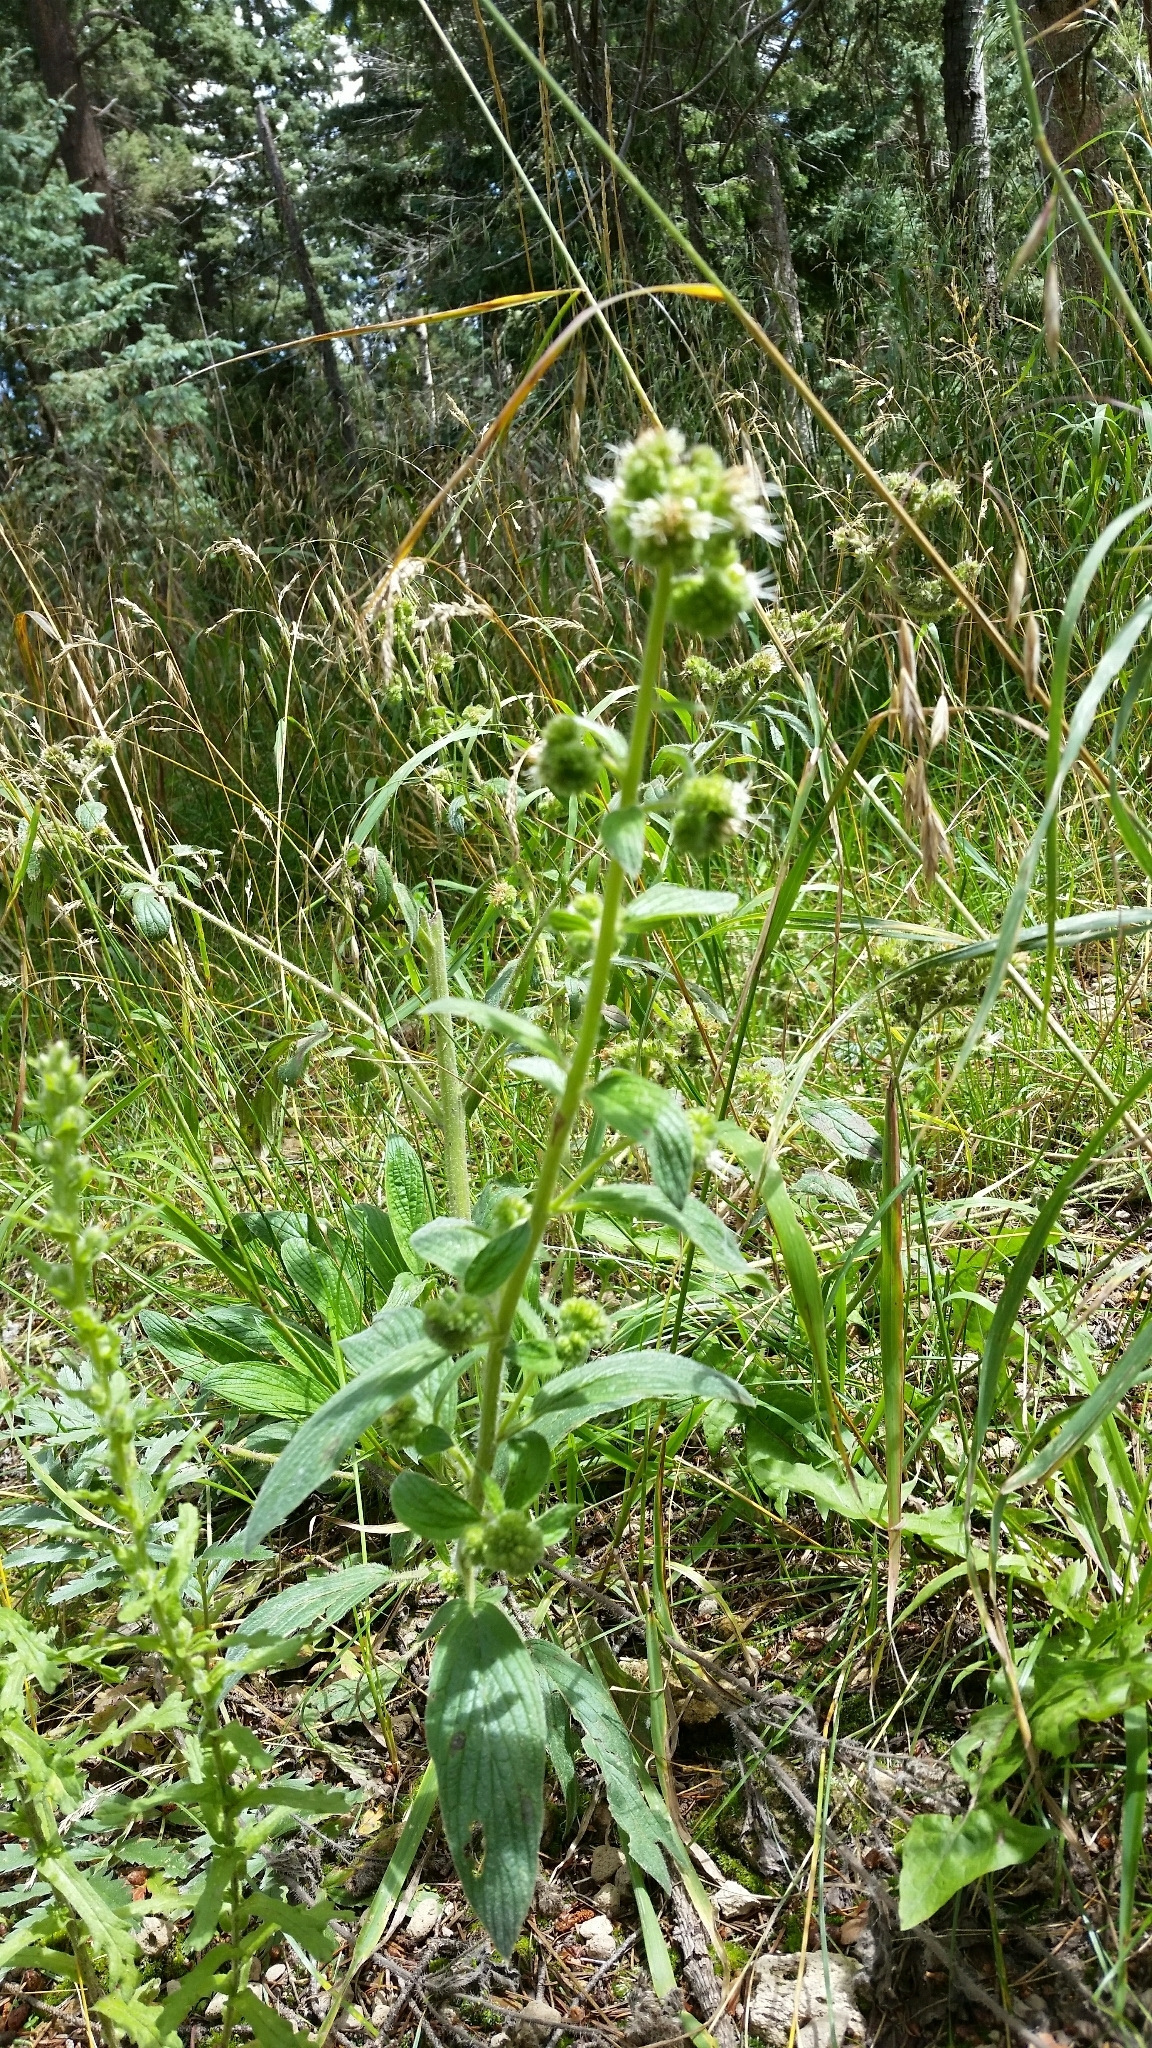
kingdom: Plantae
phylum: Tracheophyta
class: Magnoliopsida
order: Boraginales
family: Hydrophyllaceae
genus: Phacelia
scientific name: Phacelia heterophylla
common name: Variable-leaved phacelia
